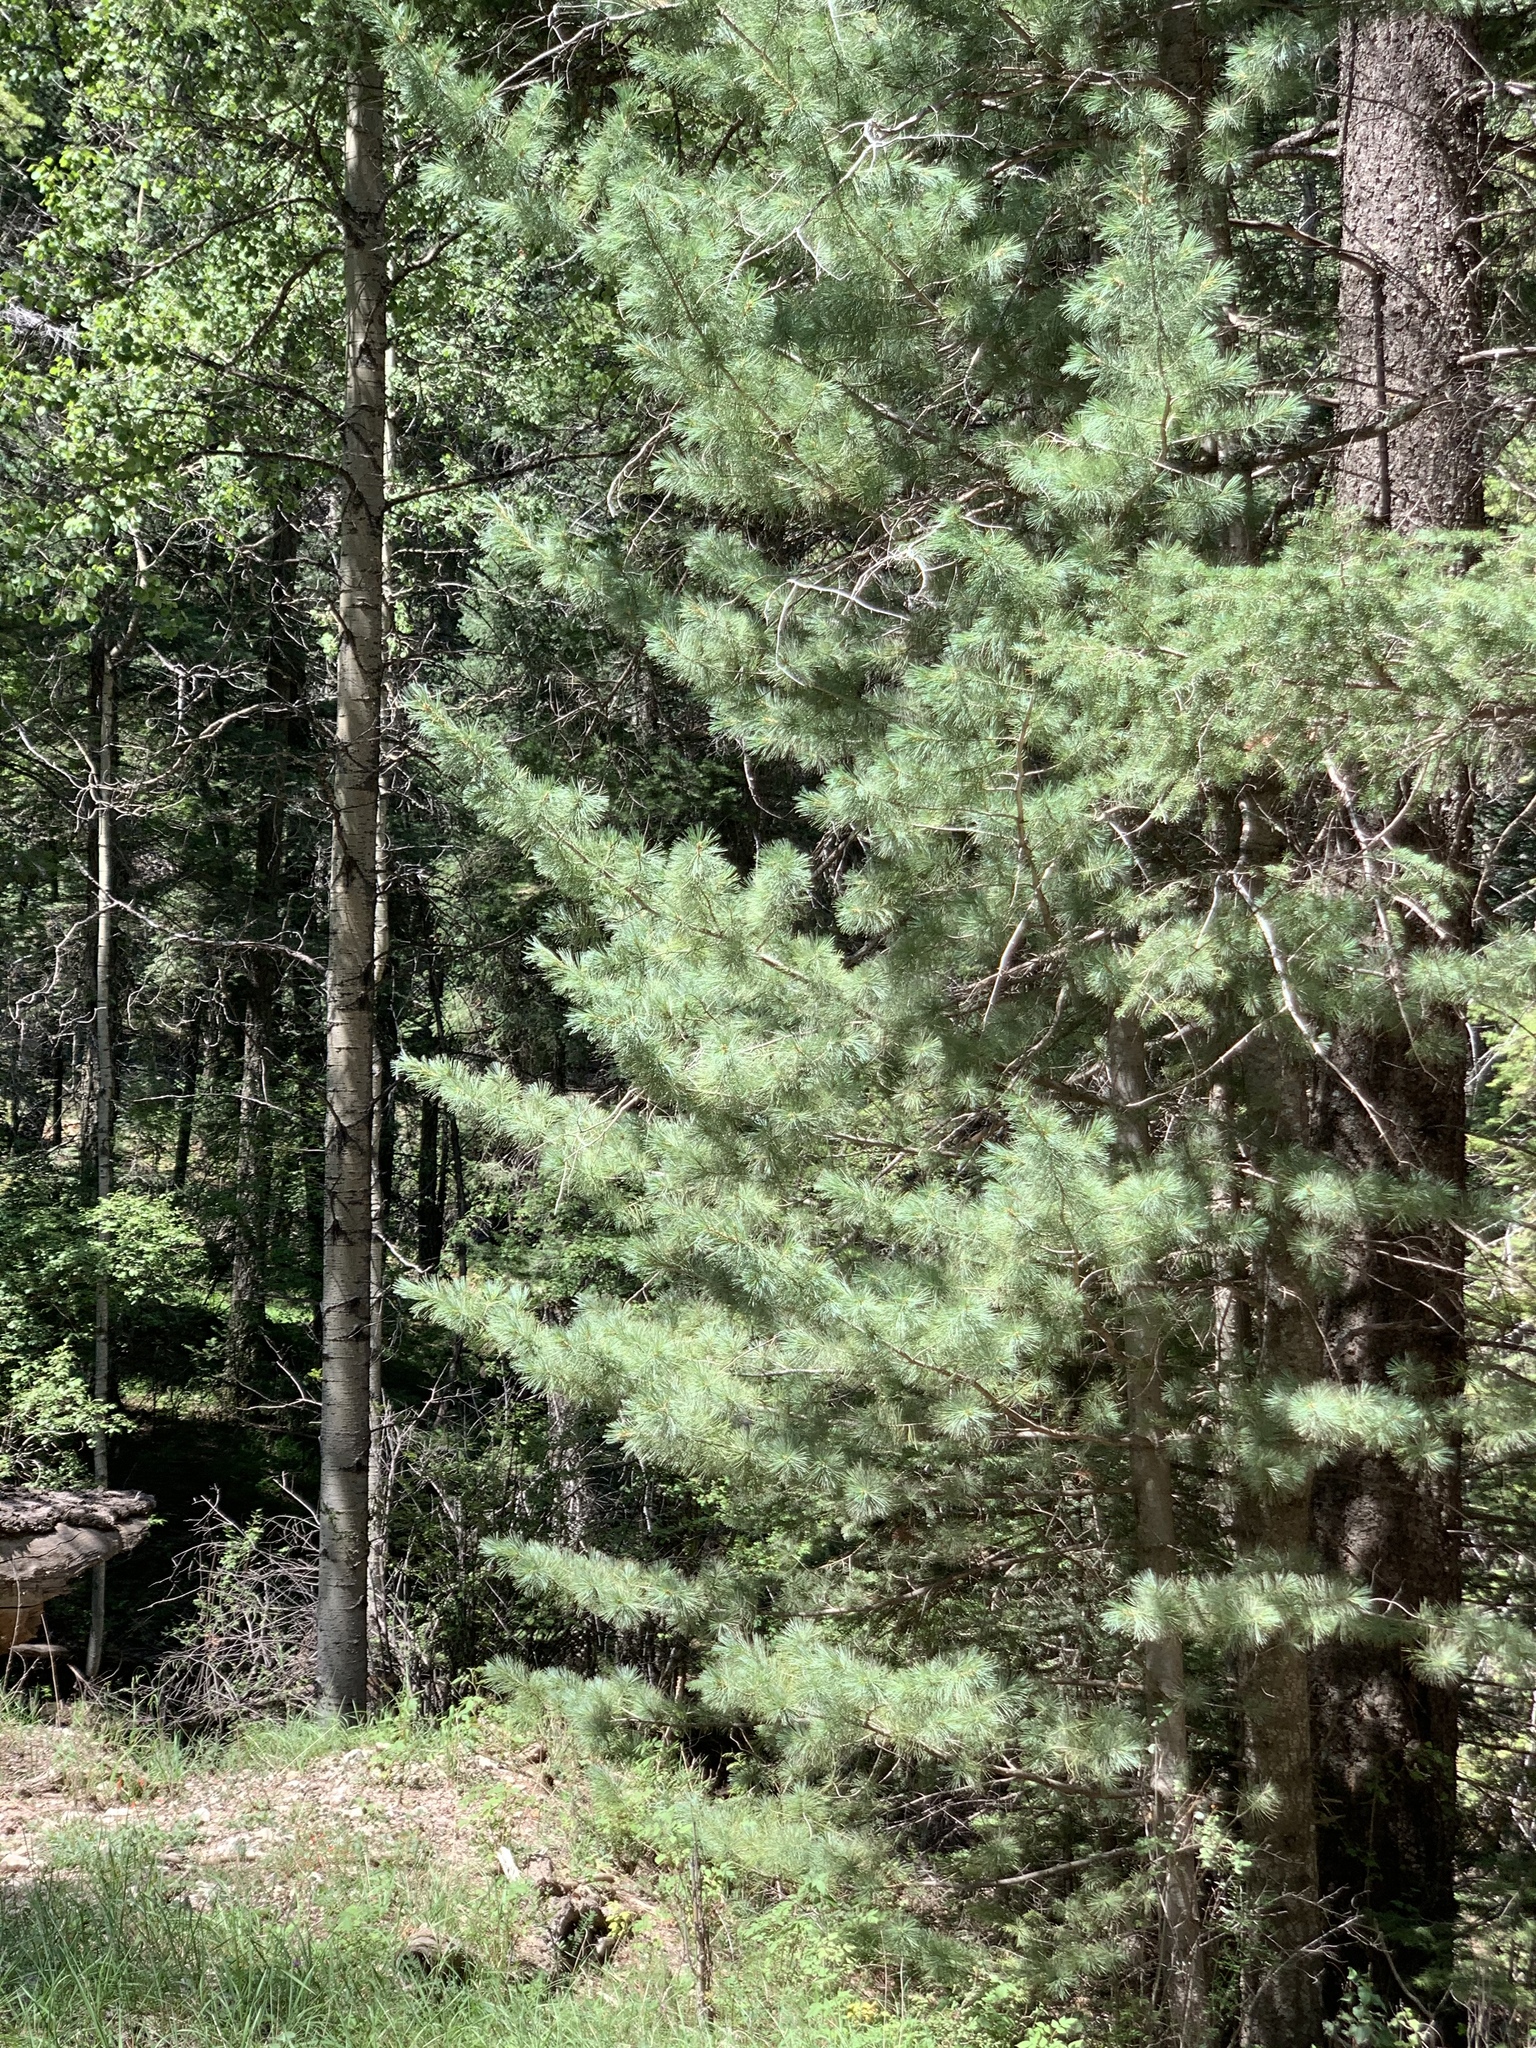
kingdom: Plantae
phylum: Tracheophyta
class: Pinopsida
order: Pinales
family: Pinaceae
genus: Pinus
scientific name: Pinus strobiformis
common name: Southwestern white pine
